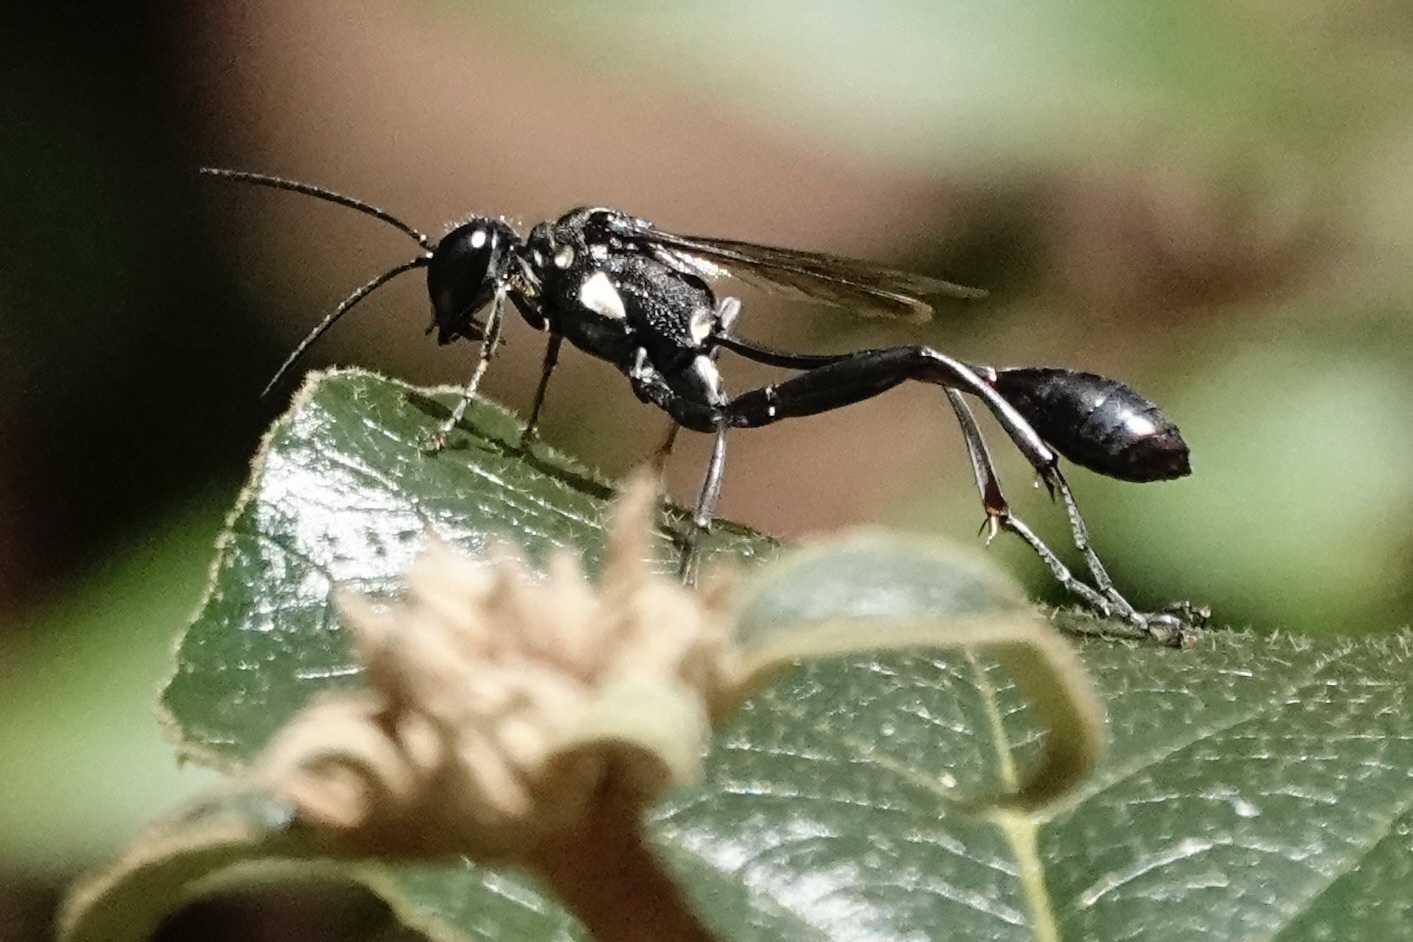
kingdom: Animalia
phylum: Arthropoda
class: Insecta
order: Hymenoptera
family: Sphecidae
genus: Eremnophila
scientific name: Eremnophila aureonotata
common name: Gold-marked thread-waisted wasp
